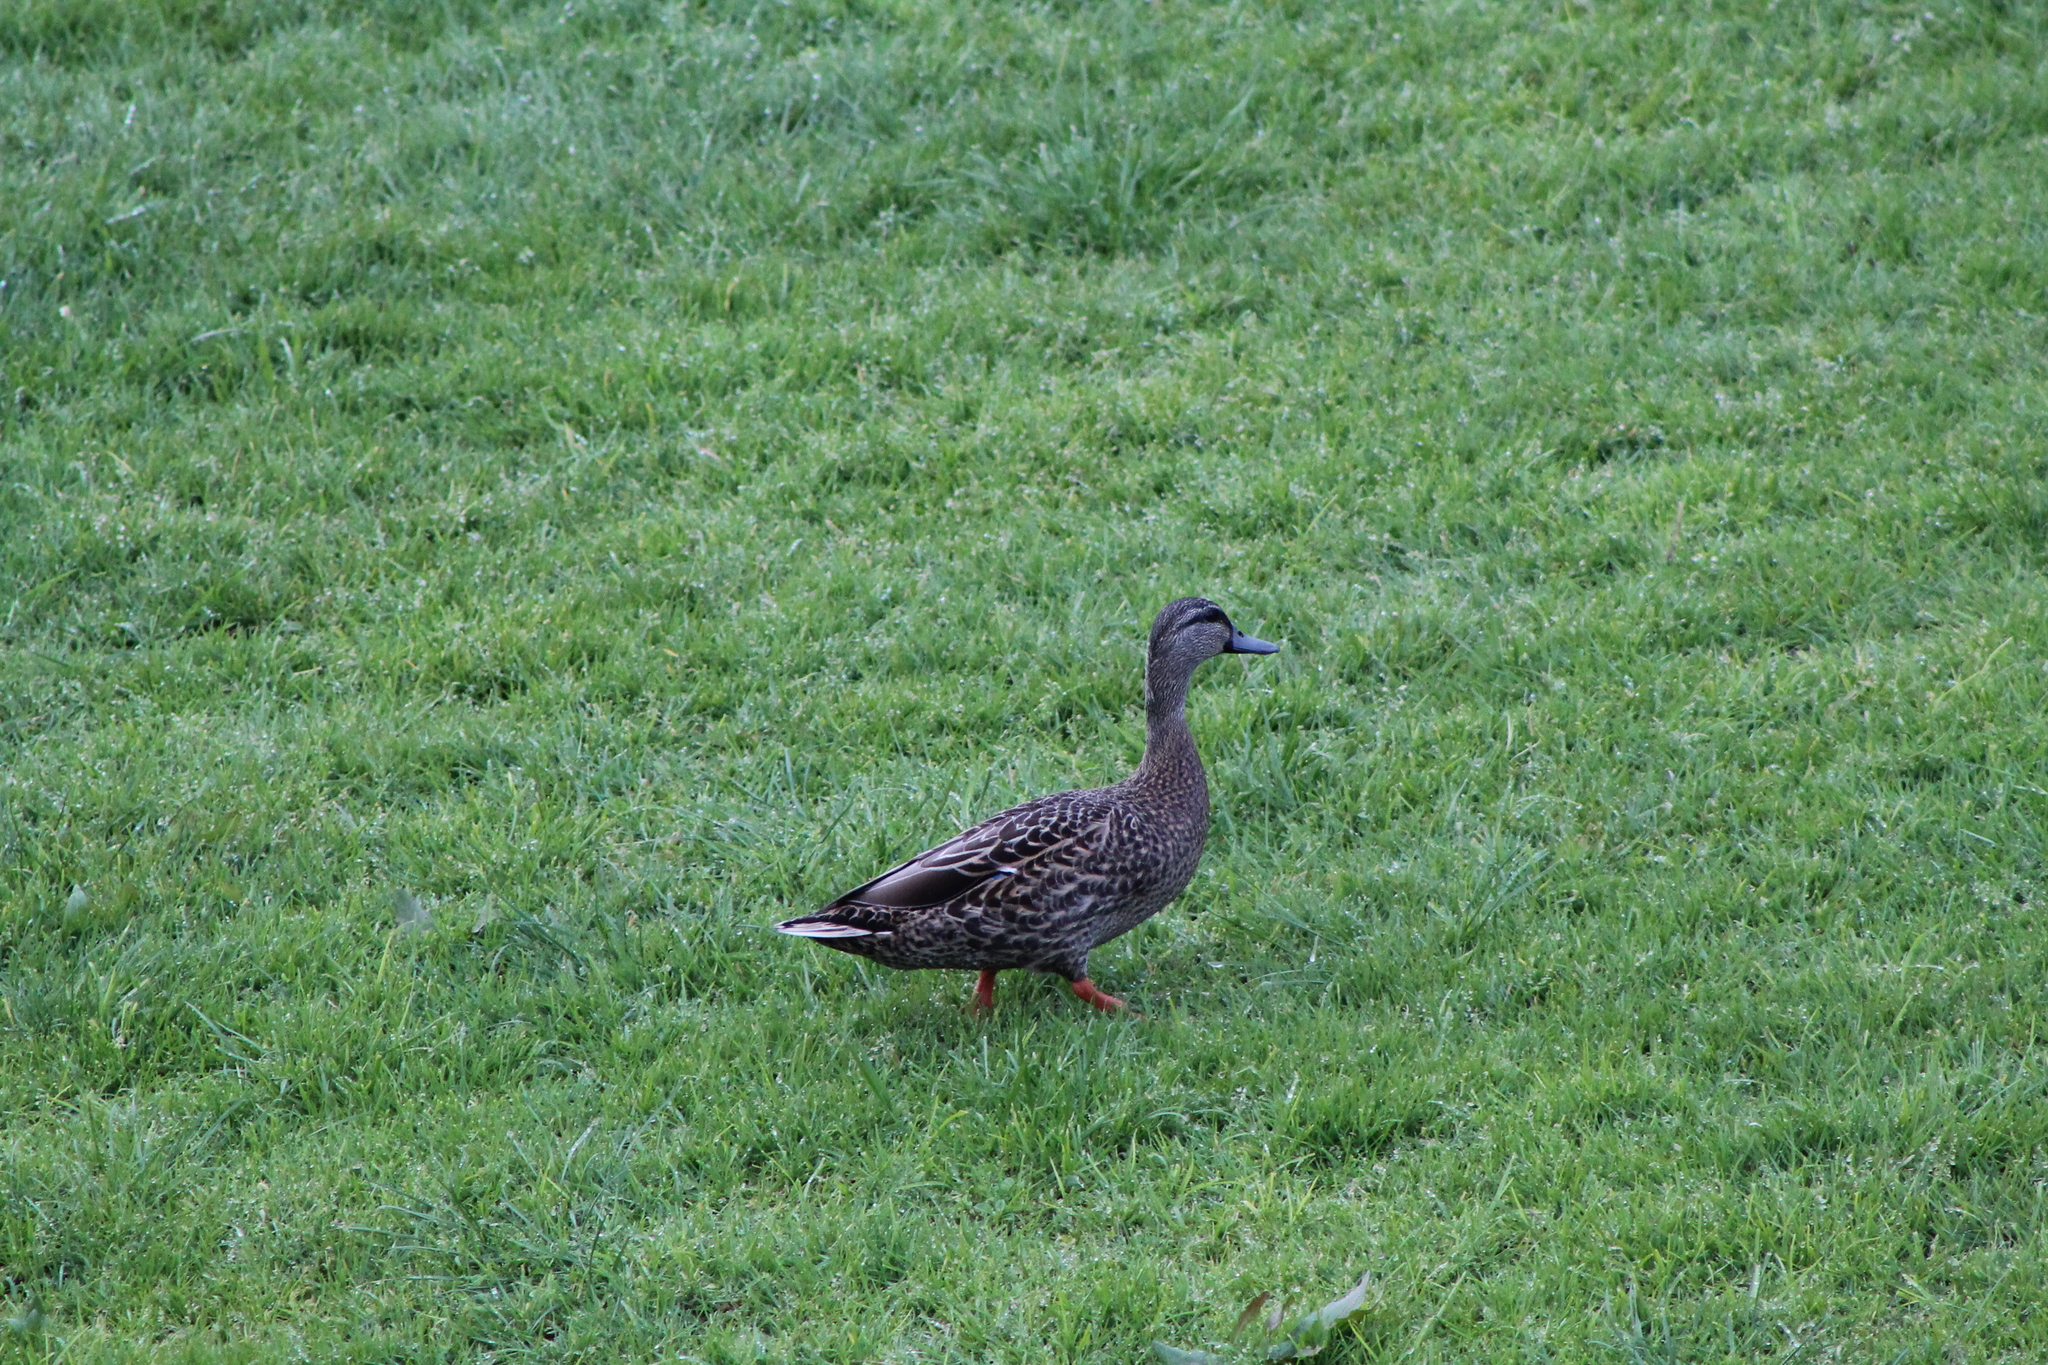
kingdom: Animalia
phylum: Chordata
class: Aves
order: Anseriformes
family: Anatidae
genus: Anas
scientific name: Anas
